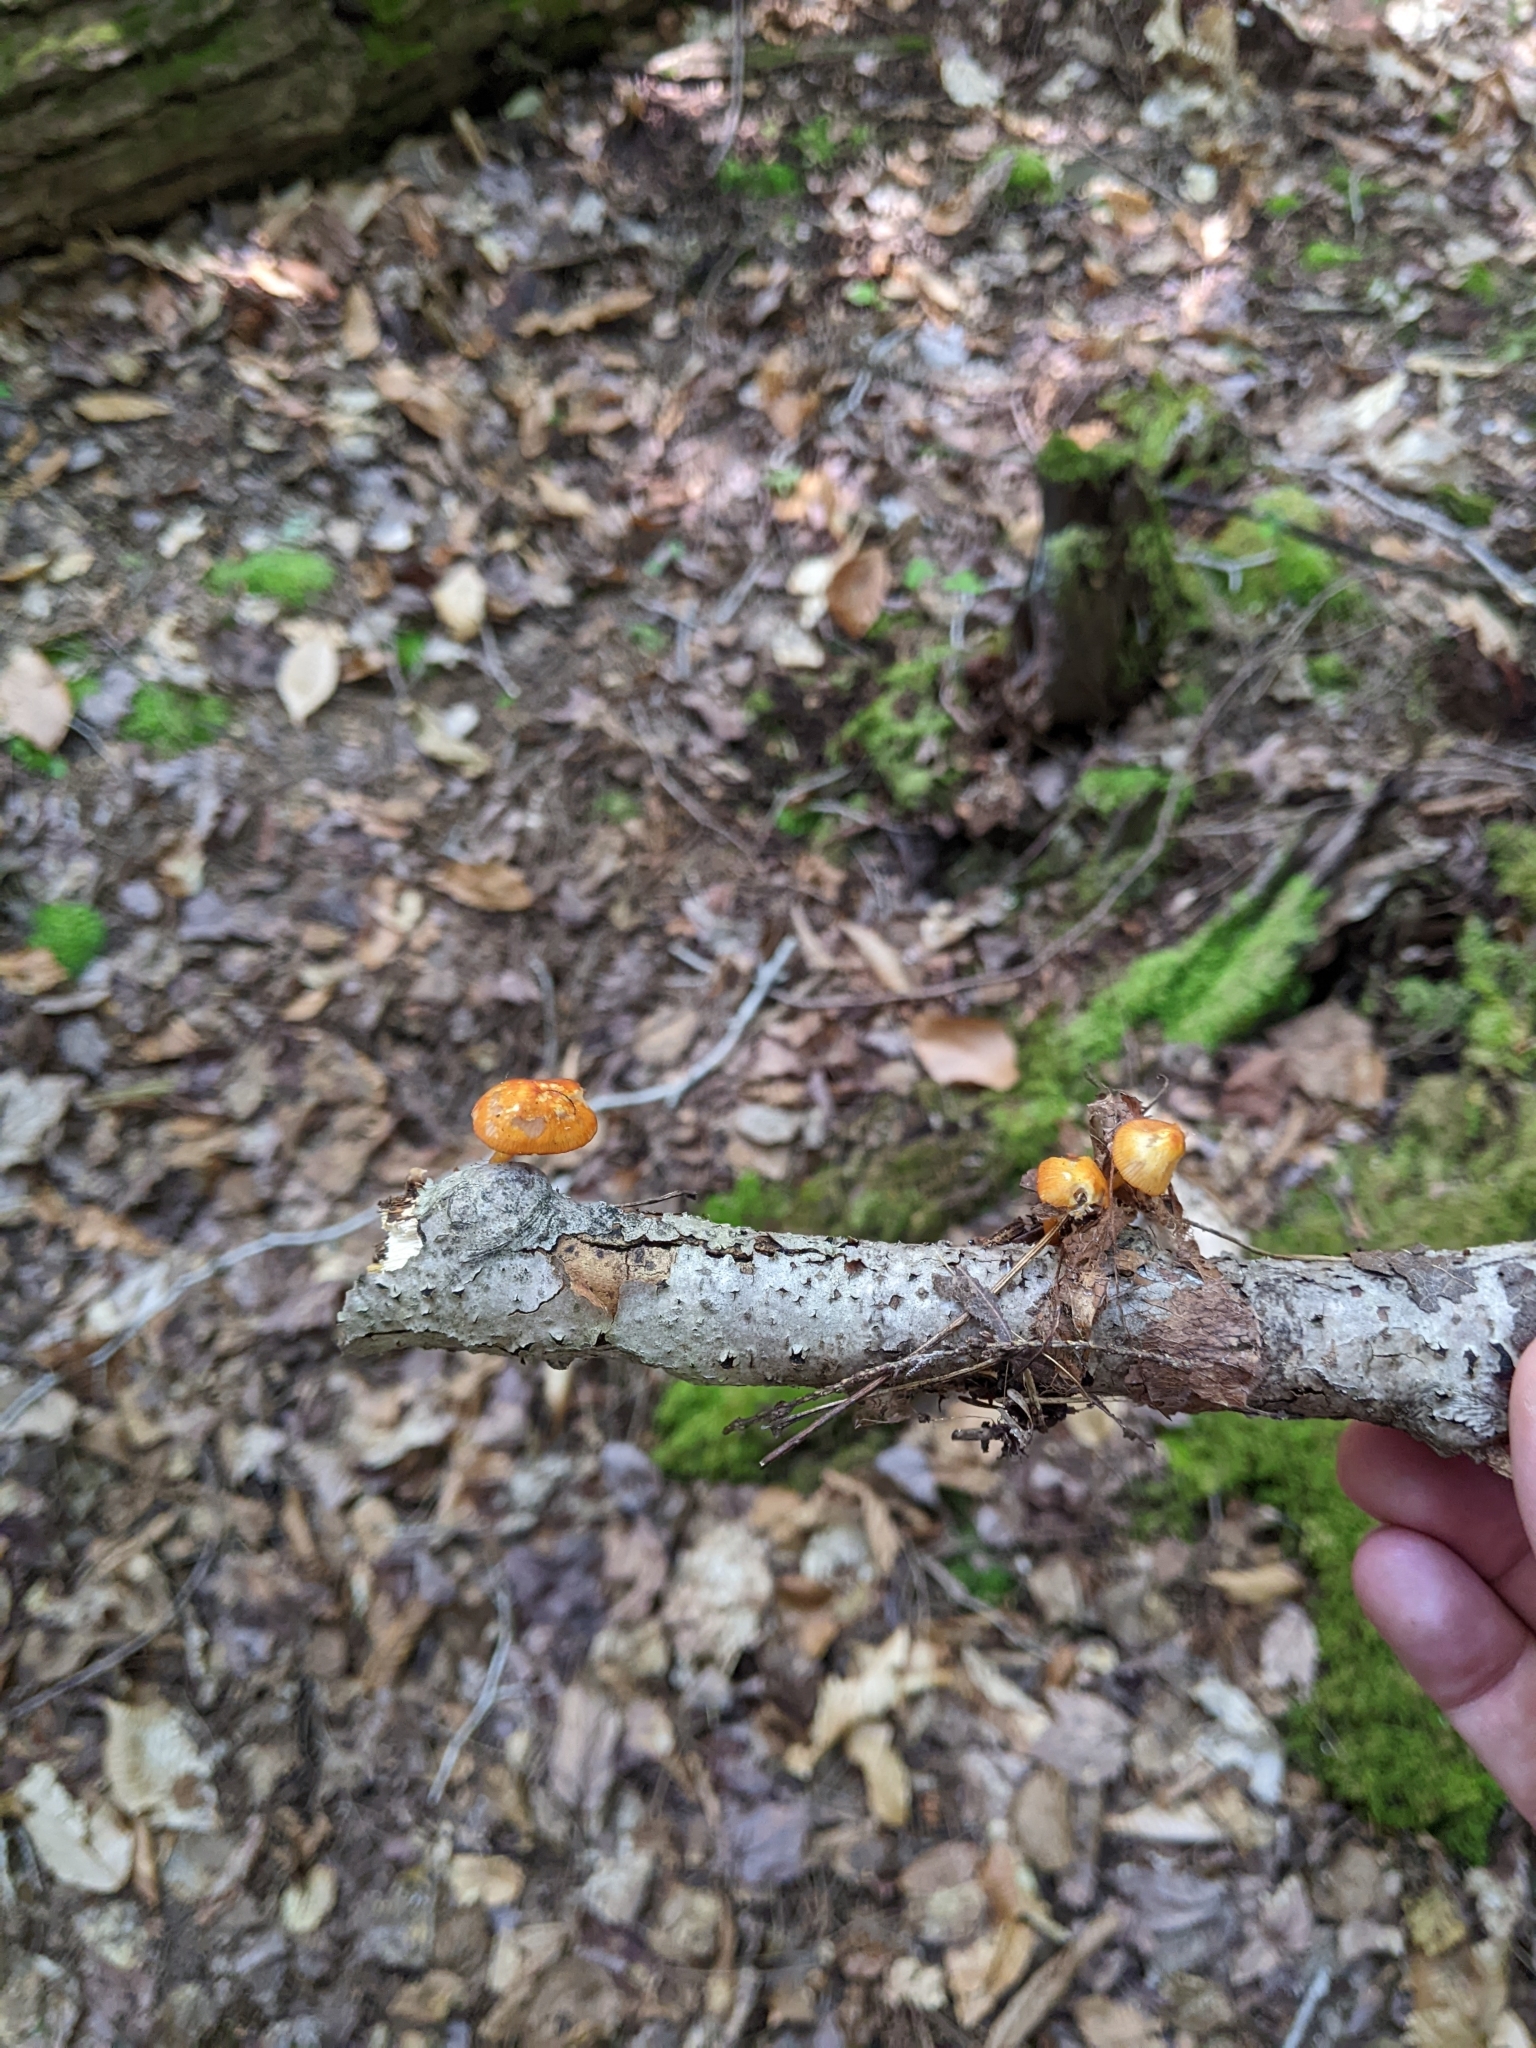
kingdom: Fungi
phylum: Basidiomycota
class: Agaricomycetes
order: Agaricales
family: Mycenaceae
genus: Mycena
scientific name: Mycena leaiana
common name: Orange mycena
